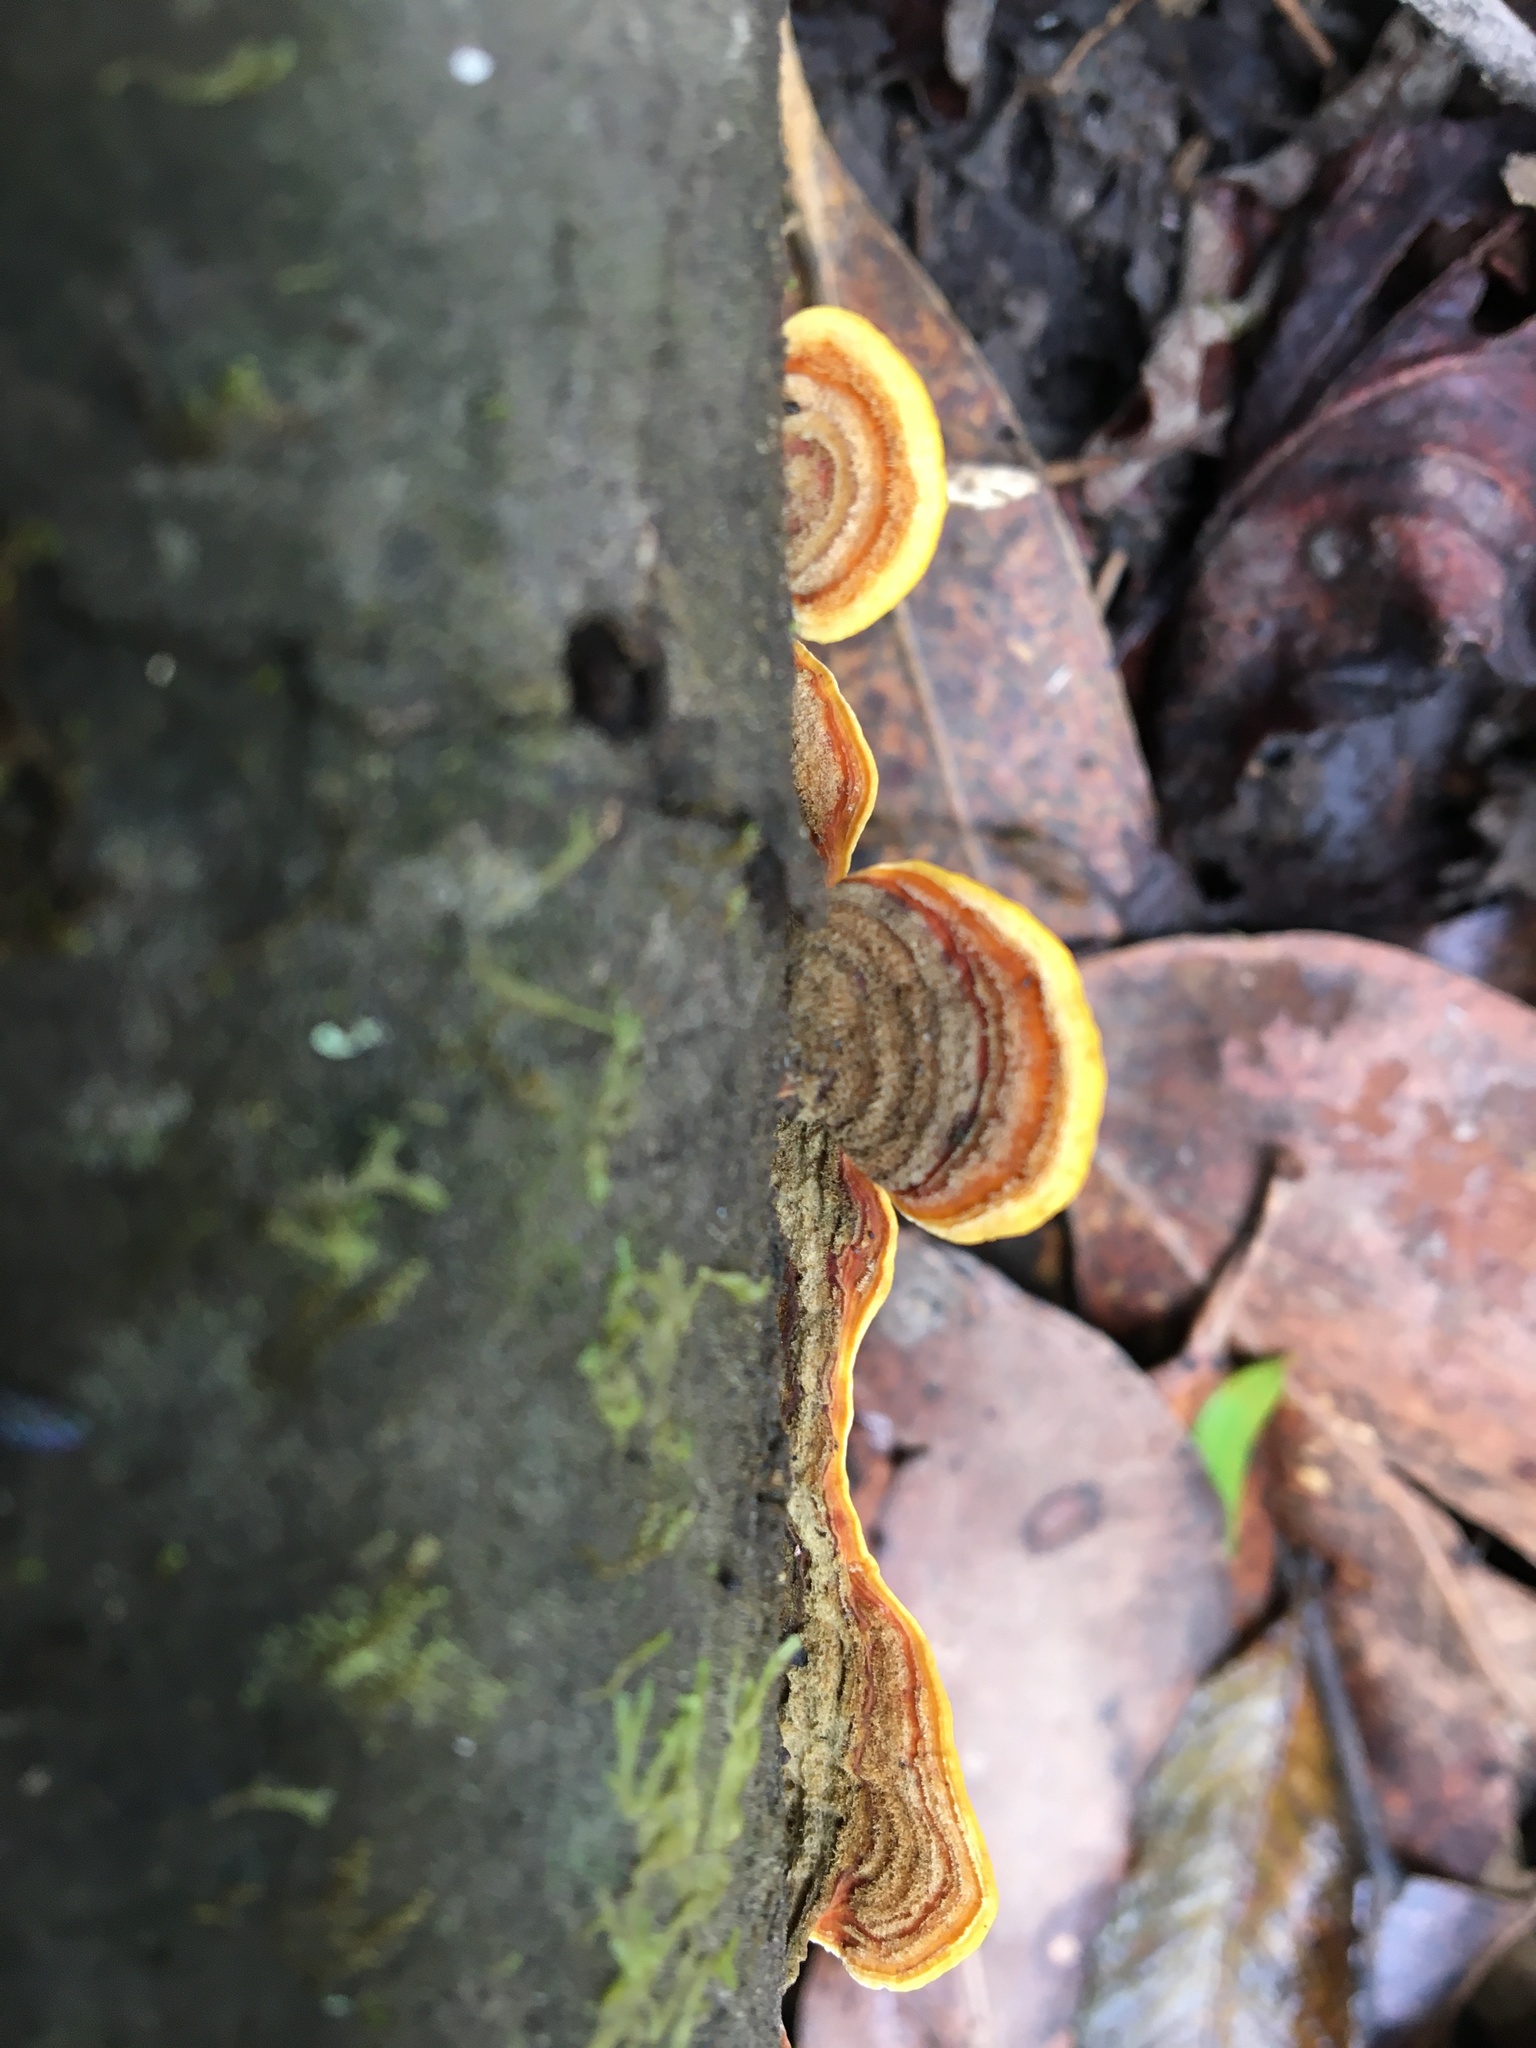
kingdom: Fungi
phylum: Basidiomycota
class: Agaricomycetes
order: Russulales
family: Stereaceae
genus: Stereum
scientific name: Stereum versicolor
